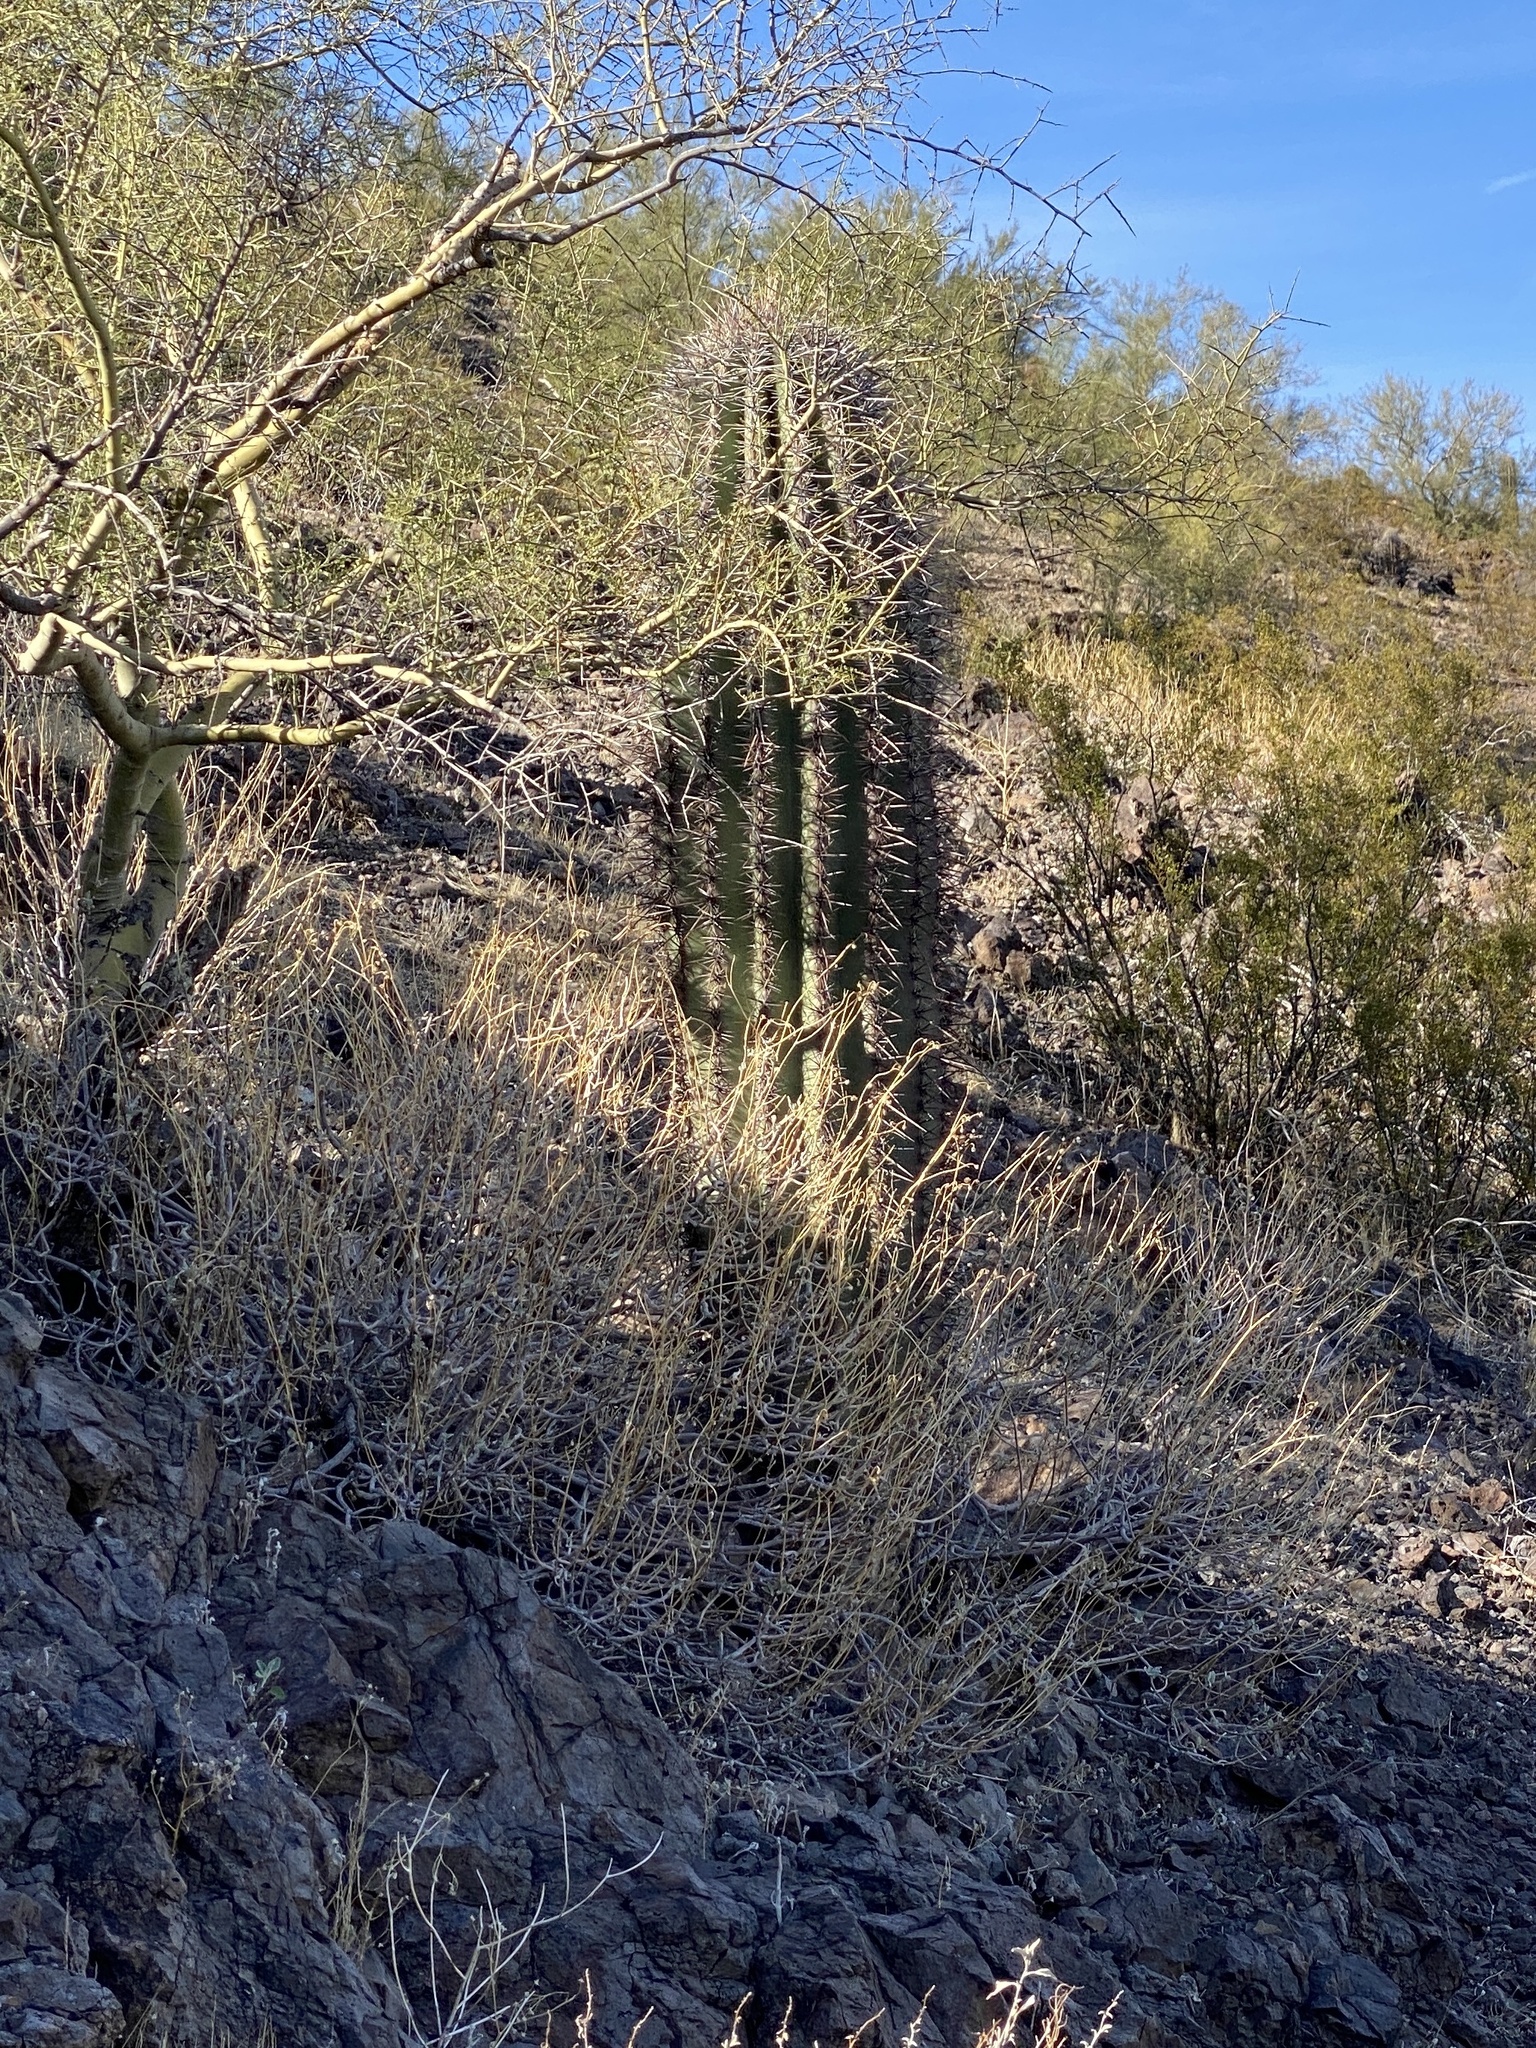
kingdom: Plantae
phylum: Tracheophyta
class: Magnoliopsida
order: Caryophyllales
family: Cactaceae
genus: Carnegiea
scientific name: Carnegiea gigantea
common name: Saguaro
